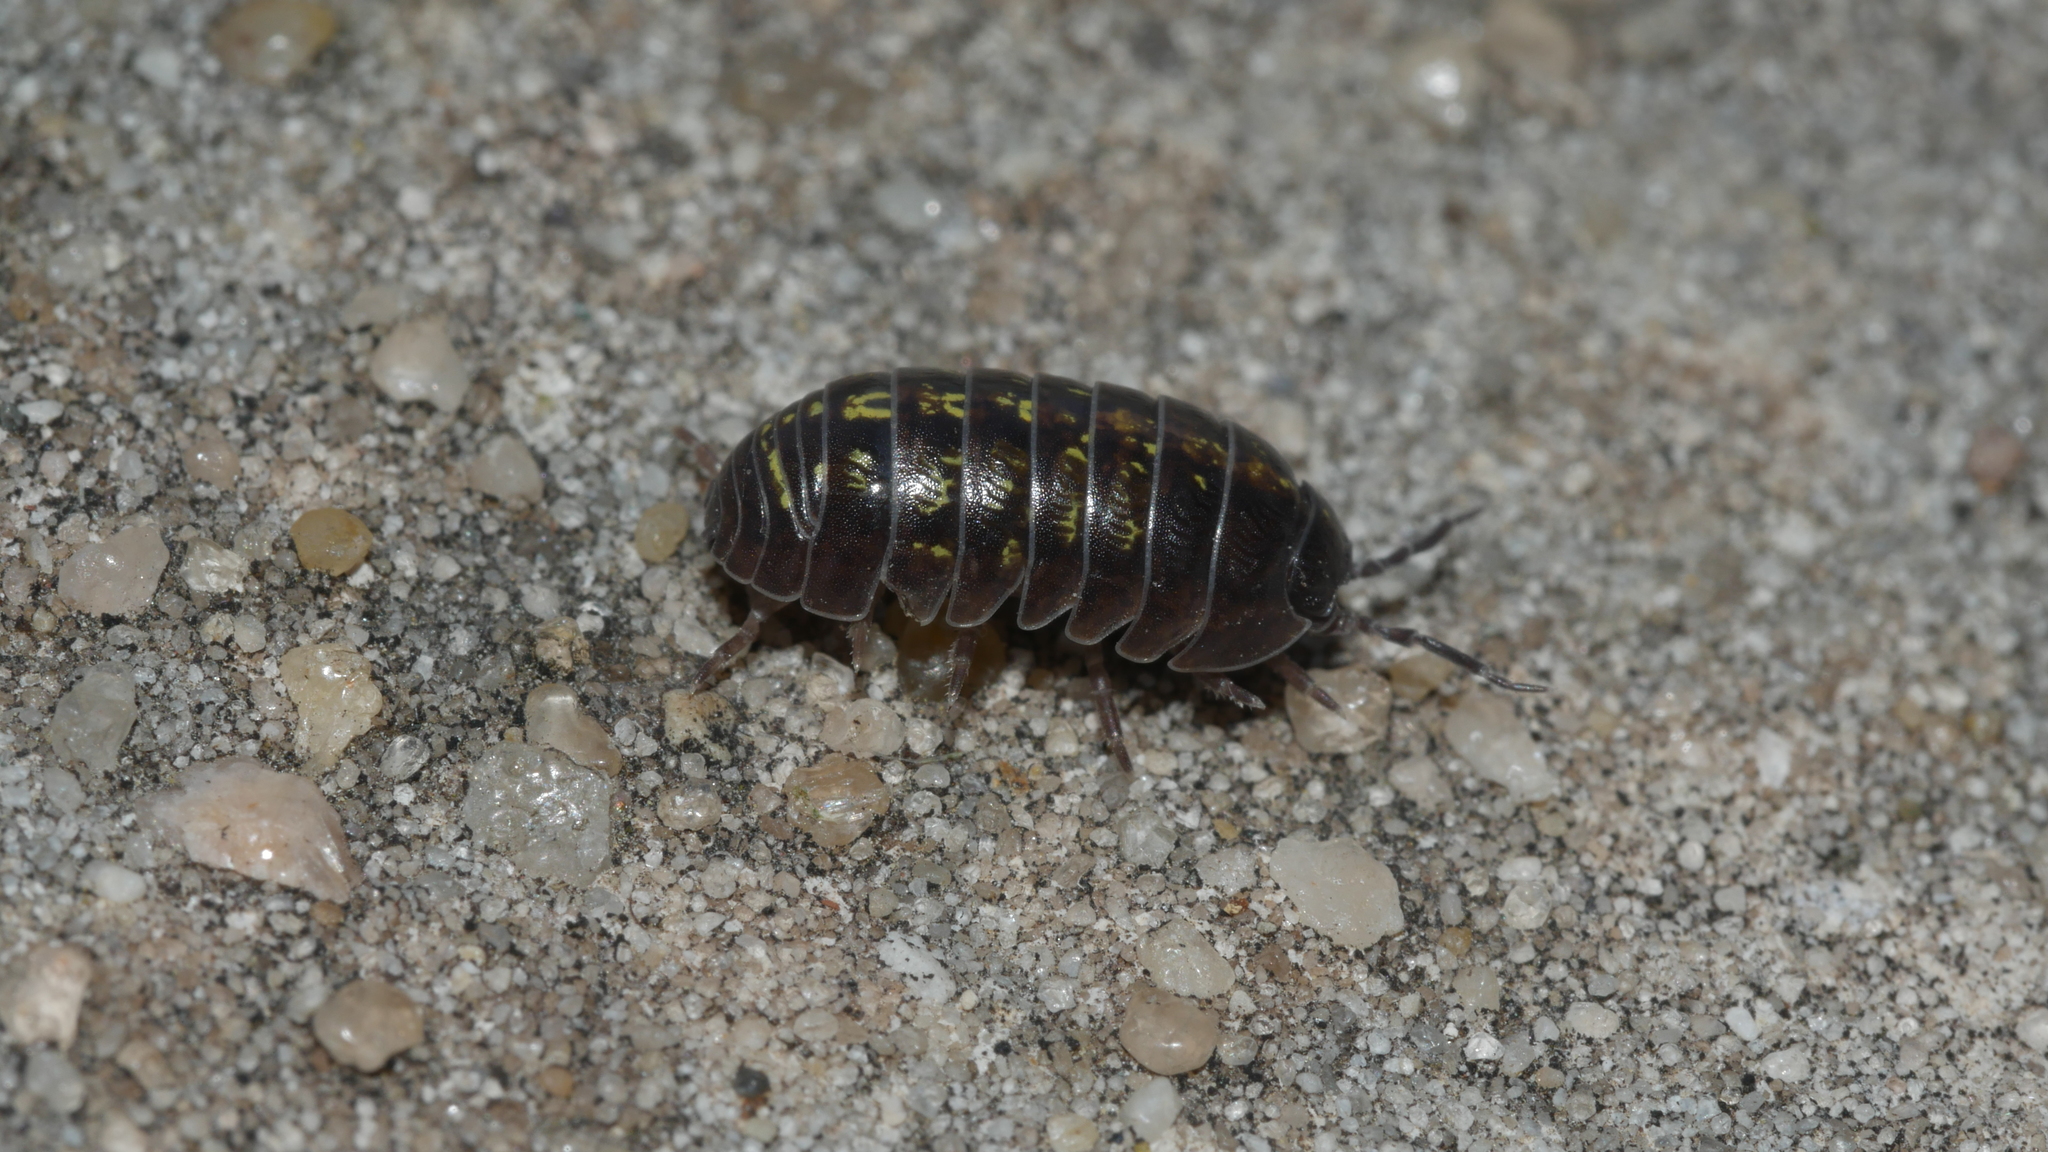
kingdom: Animalia
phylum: Arthropoda
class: Malacostraca
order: Isopoda
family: Armadillidiidae
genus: Armadillidium
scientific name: Armadillidium vulgare
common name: Common pill woodlouse
